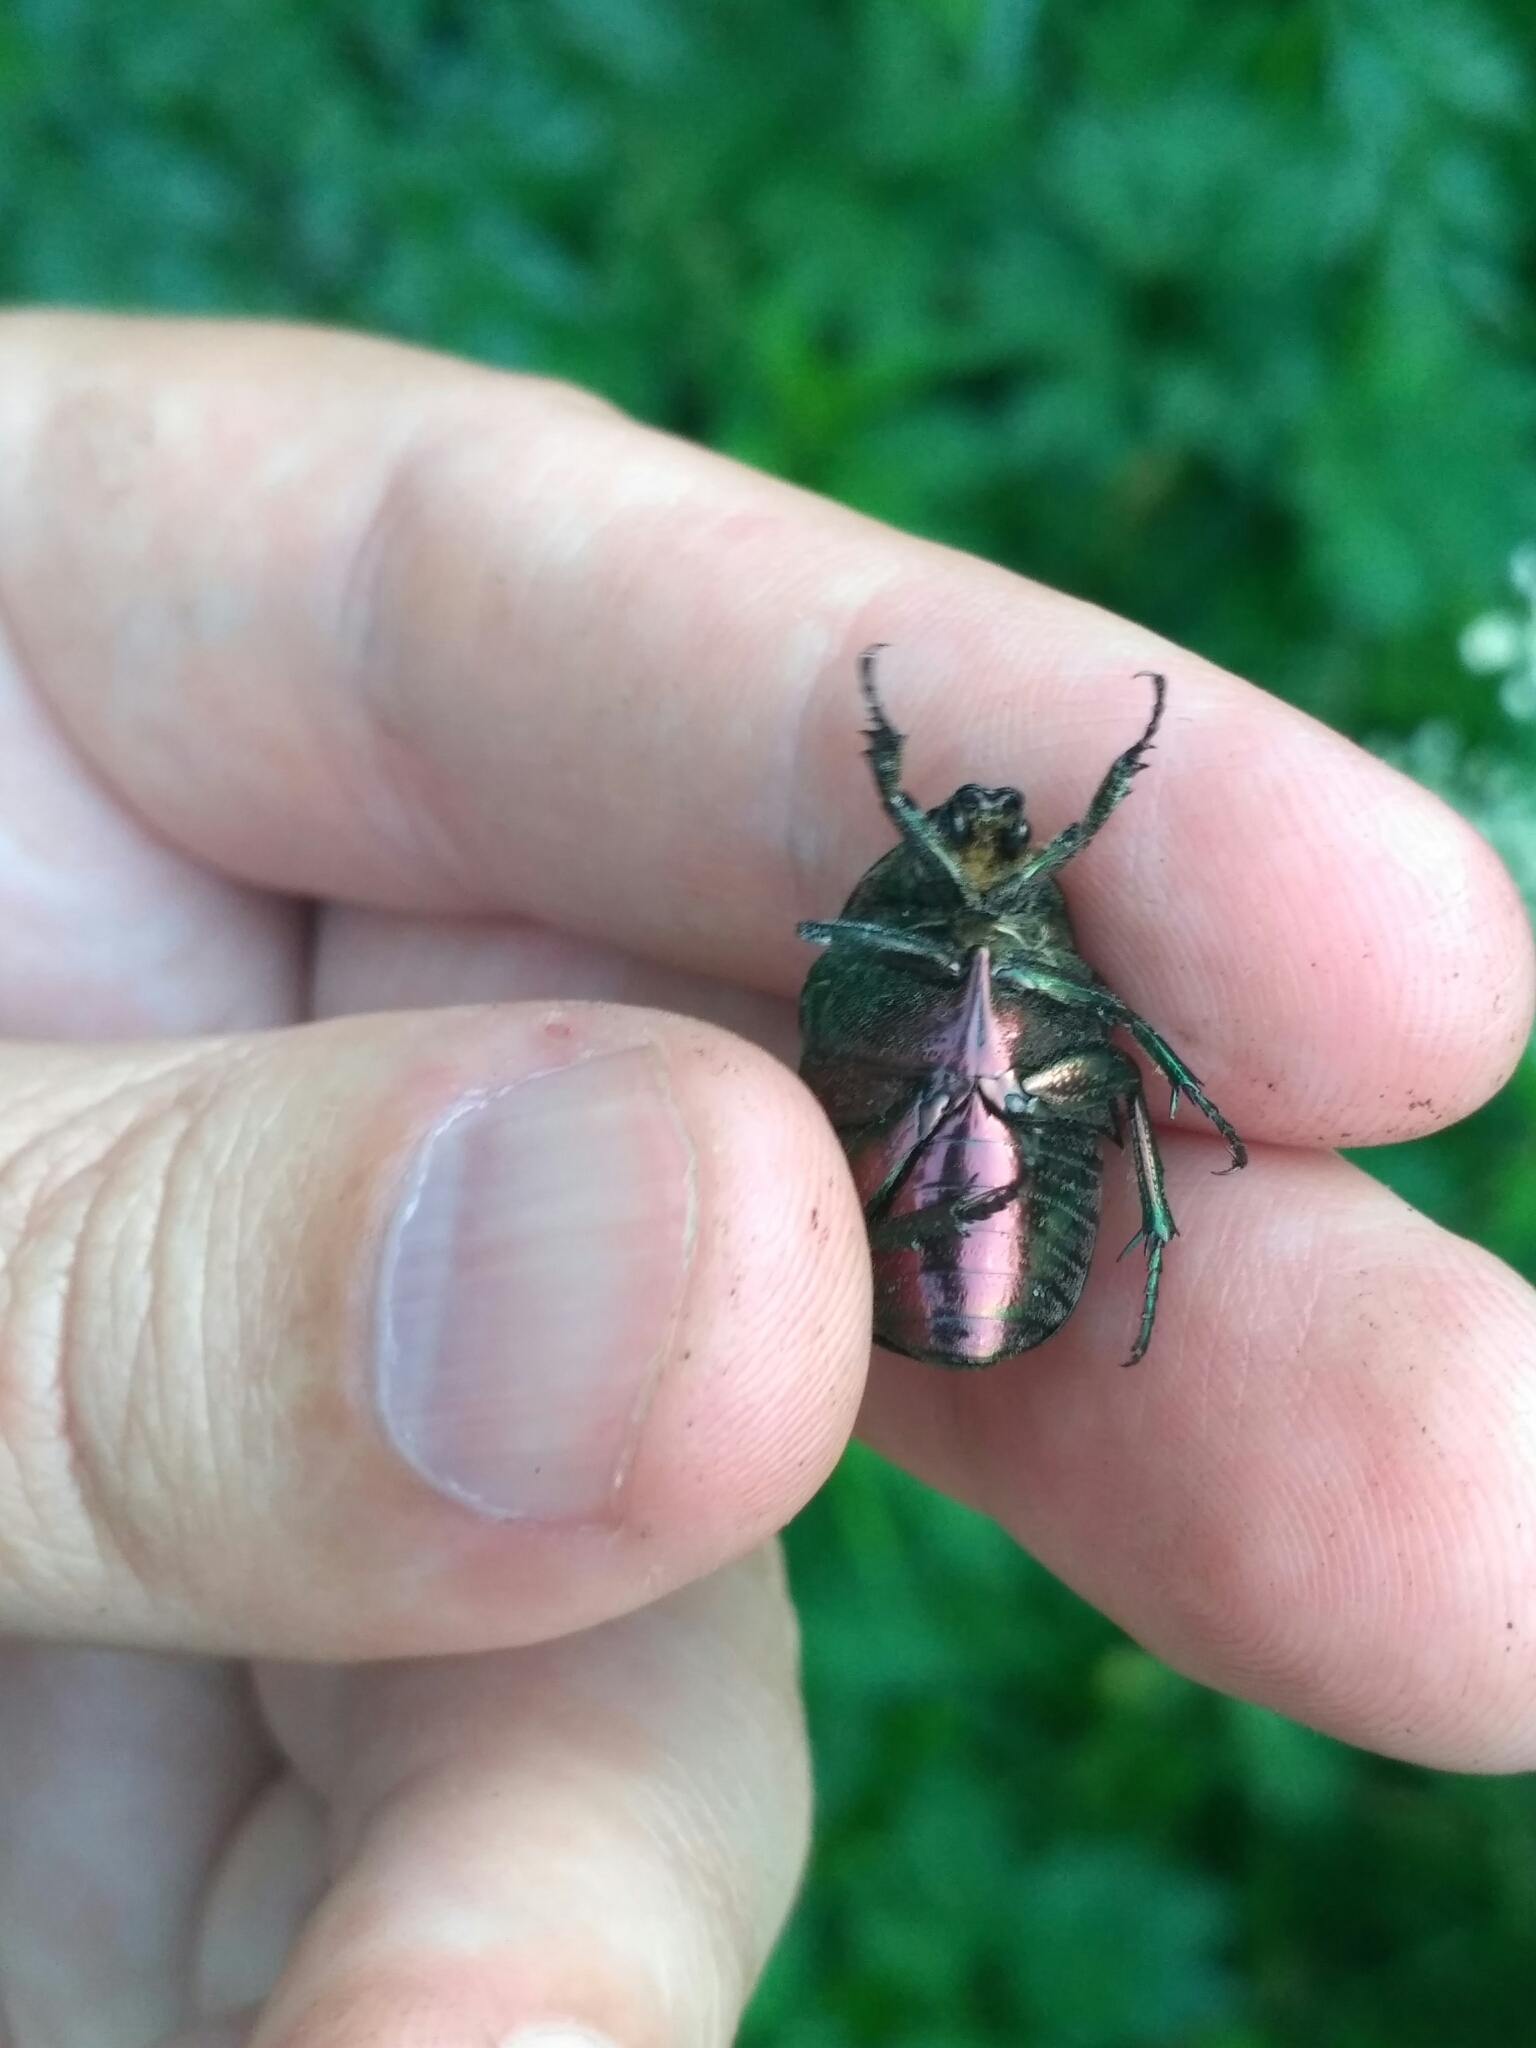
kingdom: Animalia
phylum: Arthropoda
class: Insecta
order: Coleoptera
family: Scarabaeidae
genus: Cetonia
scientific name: Cetonia aurata
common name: Rose chafer
